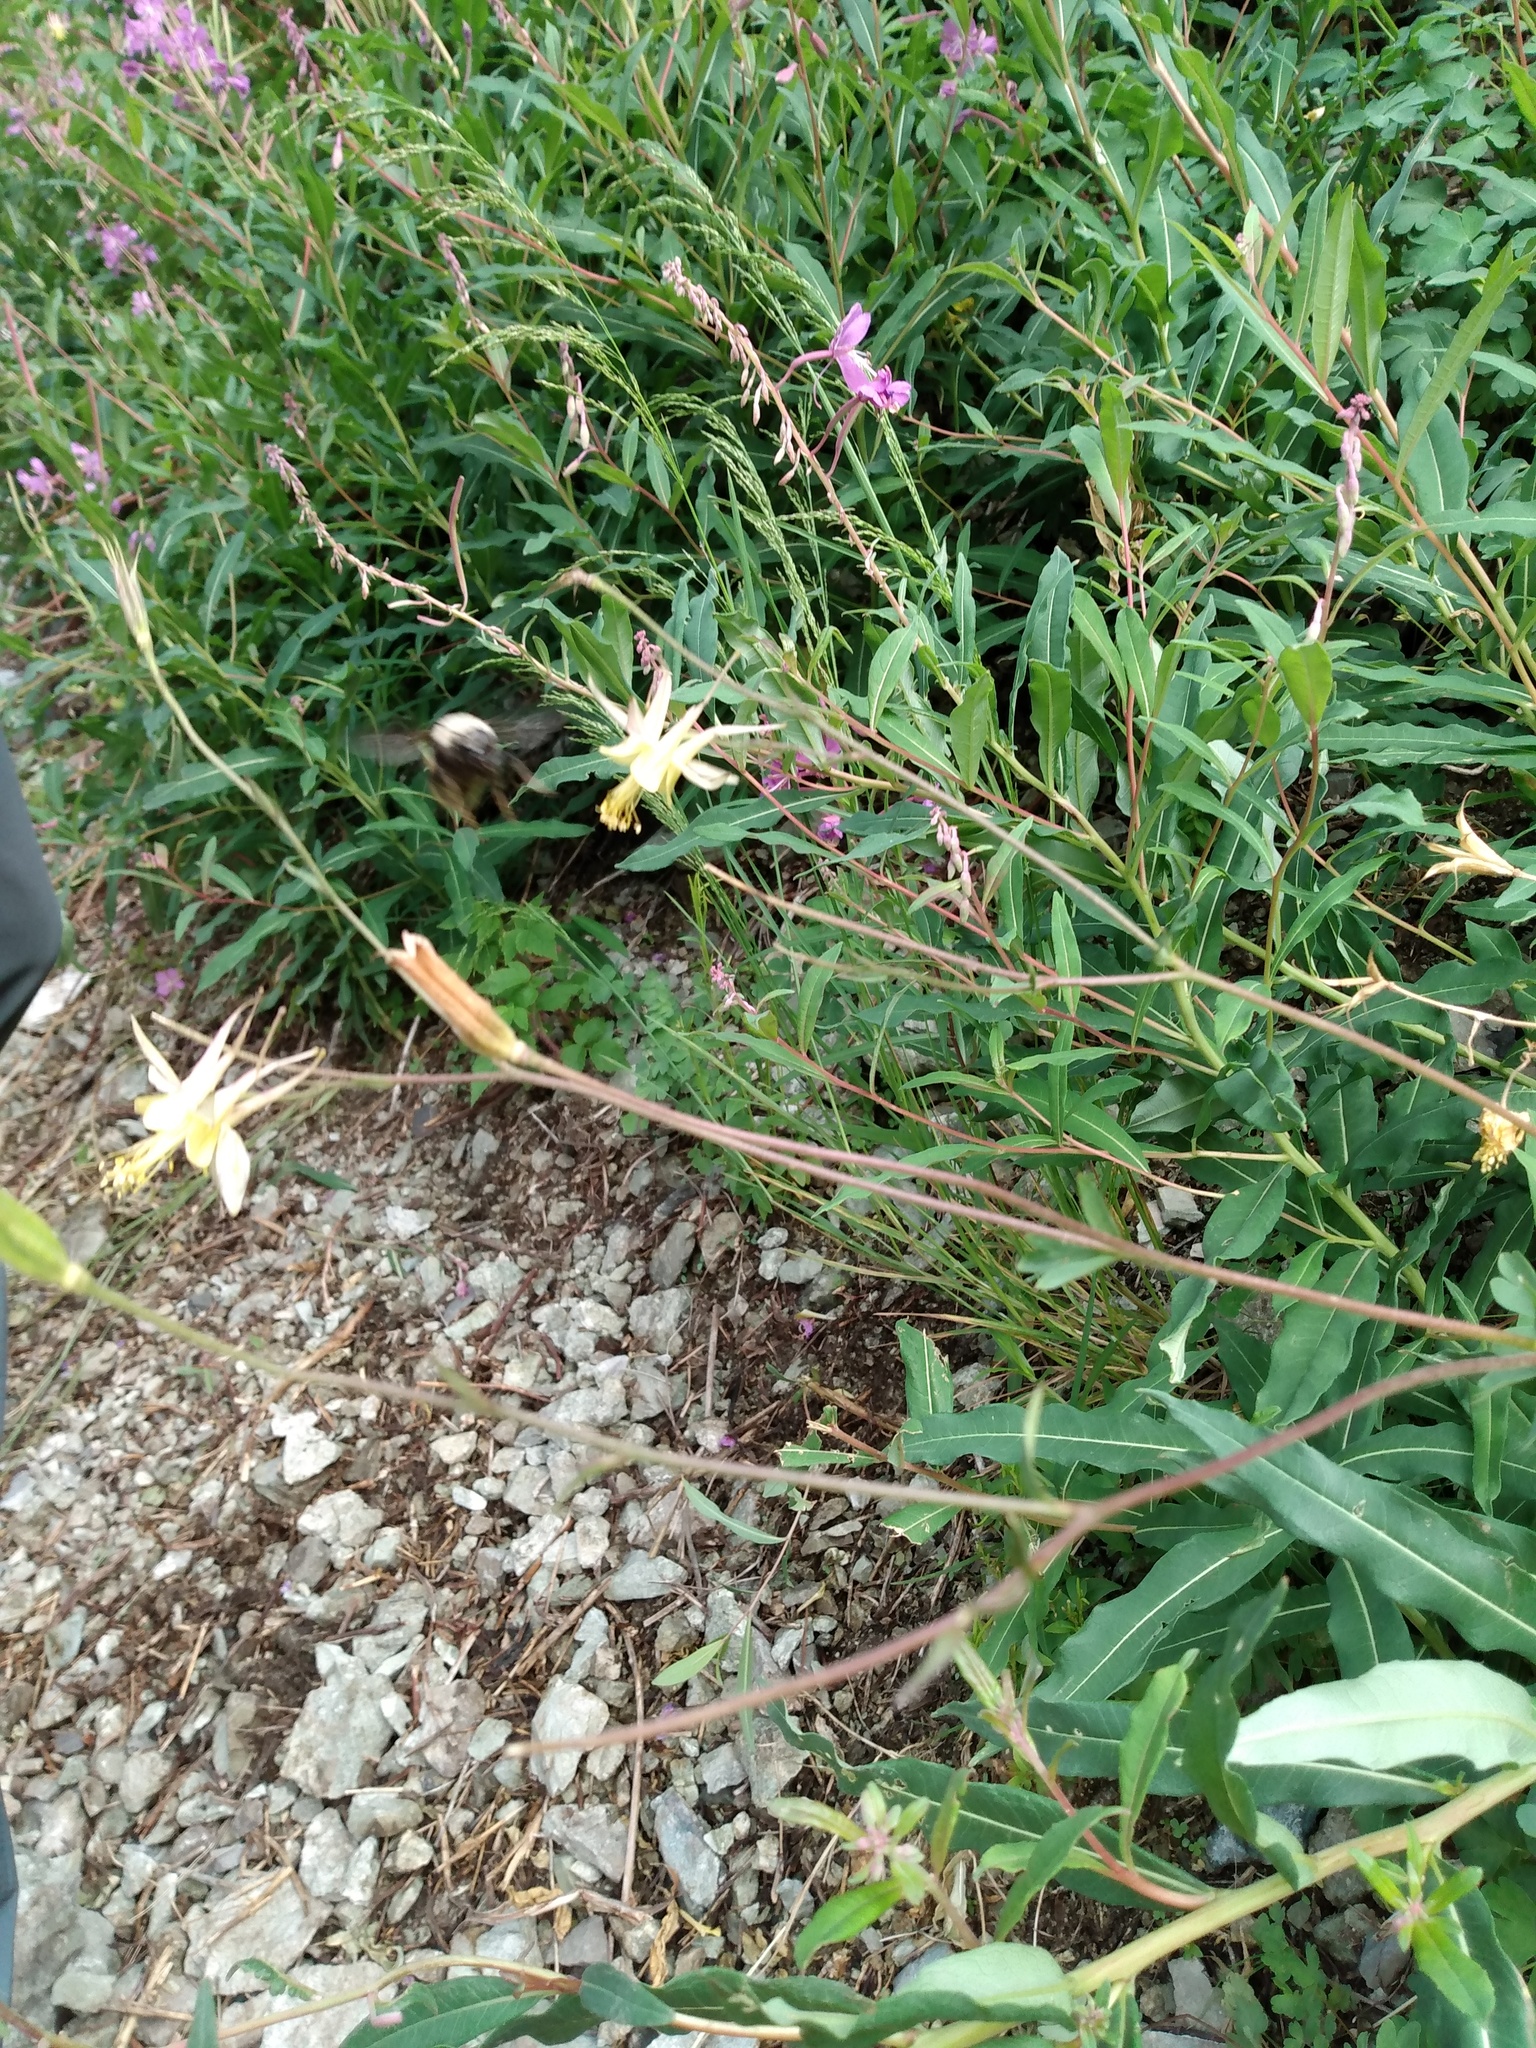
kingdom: Plantae
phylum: Tracheophyta
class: Magnoliopsida
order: Ranunculales
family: Ranunculaceae
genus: Aquilegia
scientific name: Aquilegia chrysantha
